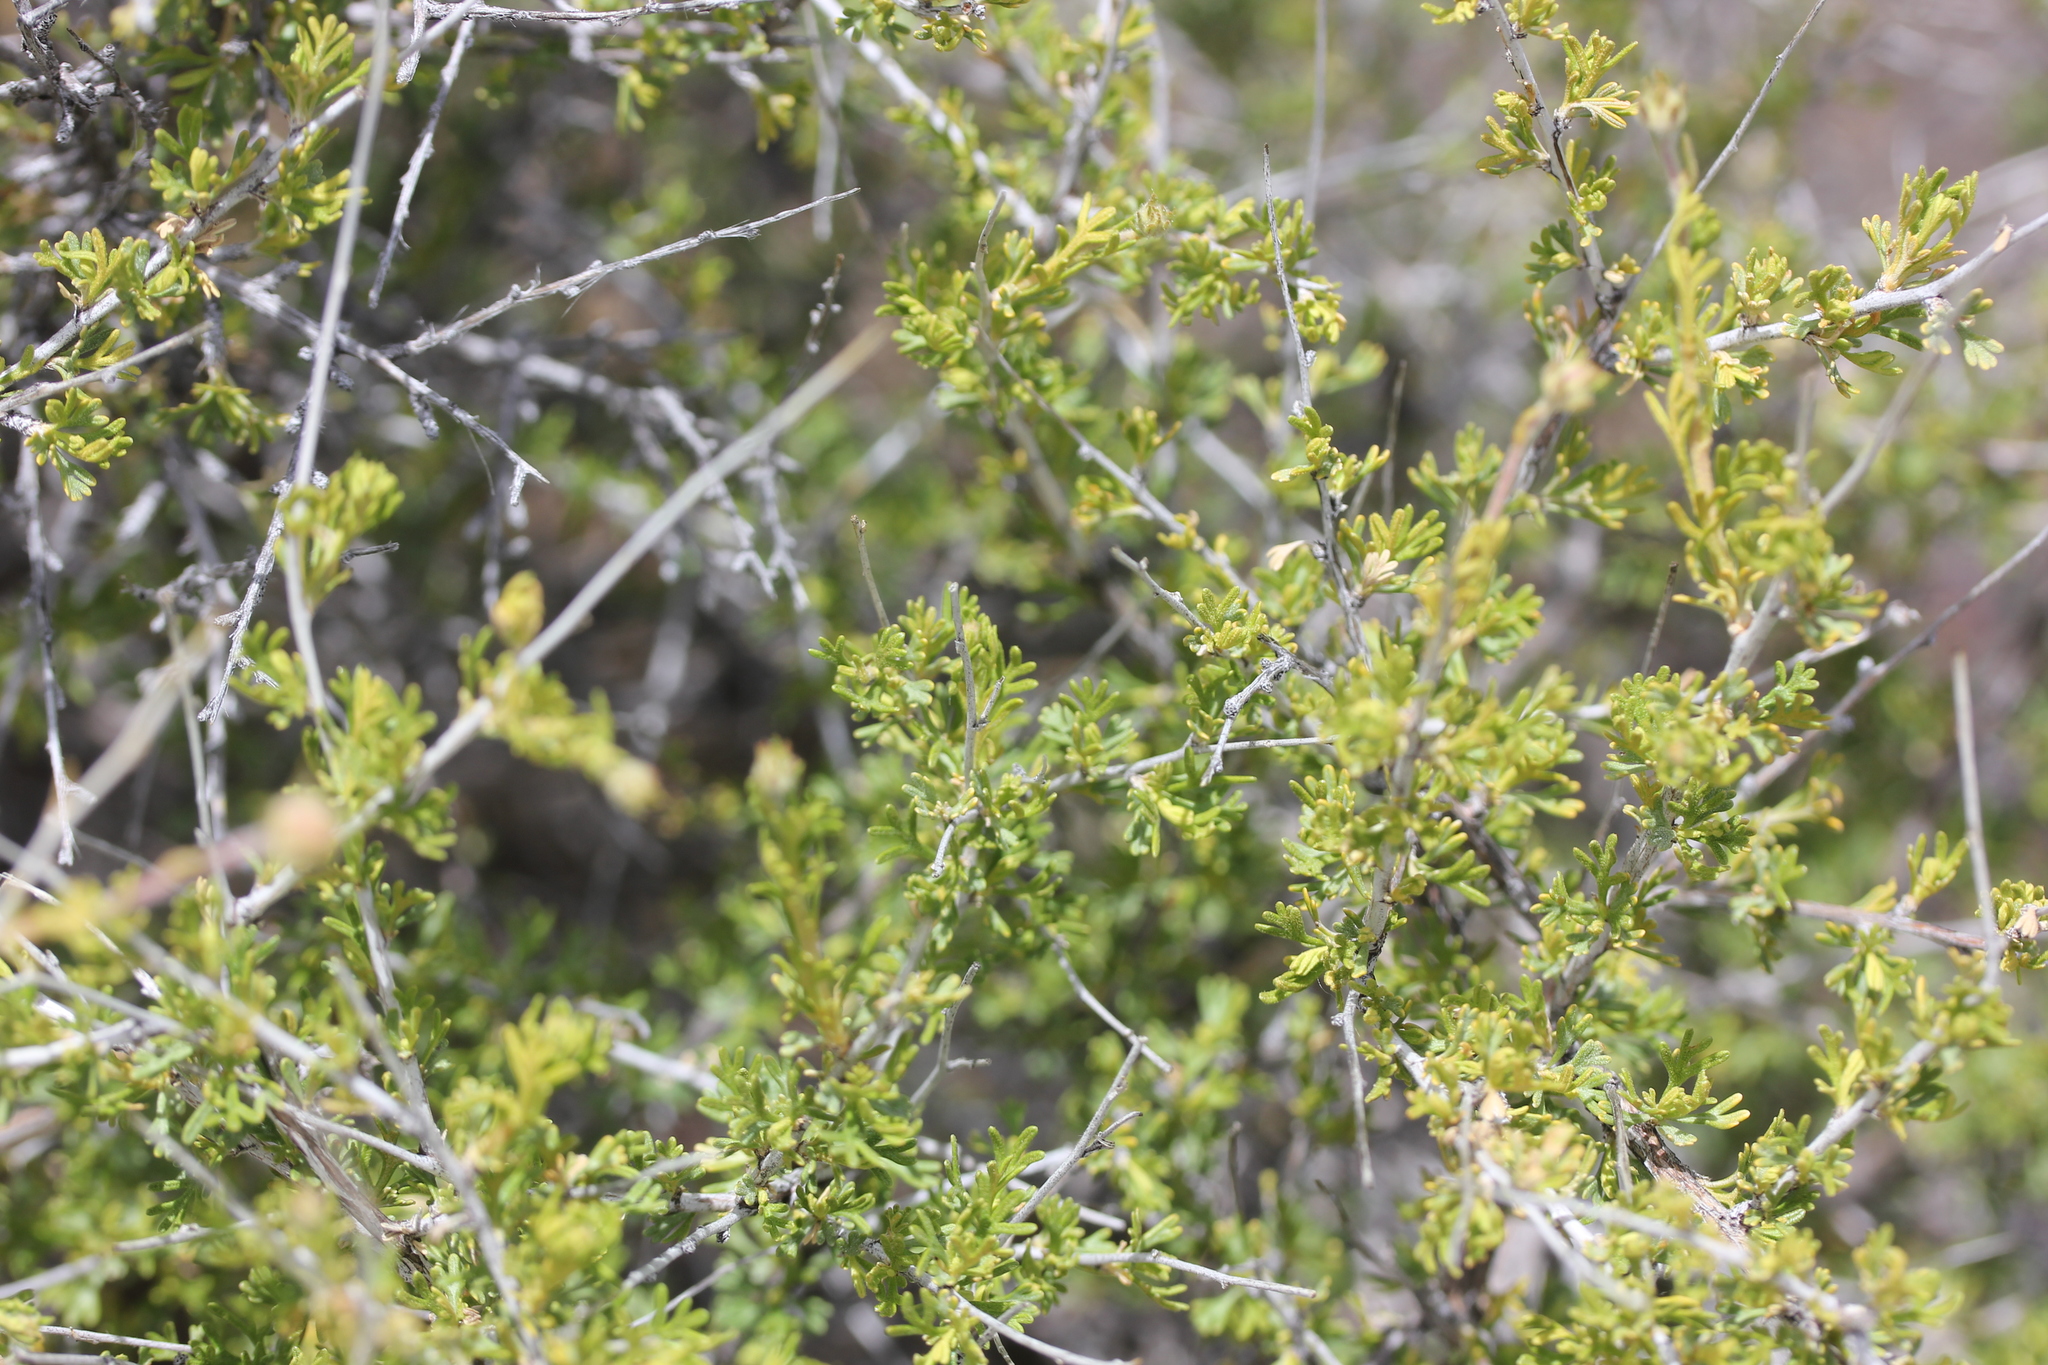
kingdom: Plantae
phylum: Tracheophyta
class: Magnoliopsida
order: Rosales
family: Rosaceae
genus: Fallugia
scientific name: Fallugia paradoxa
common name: Apache-plume
